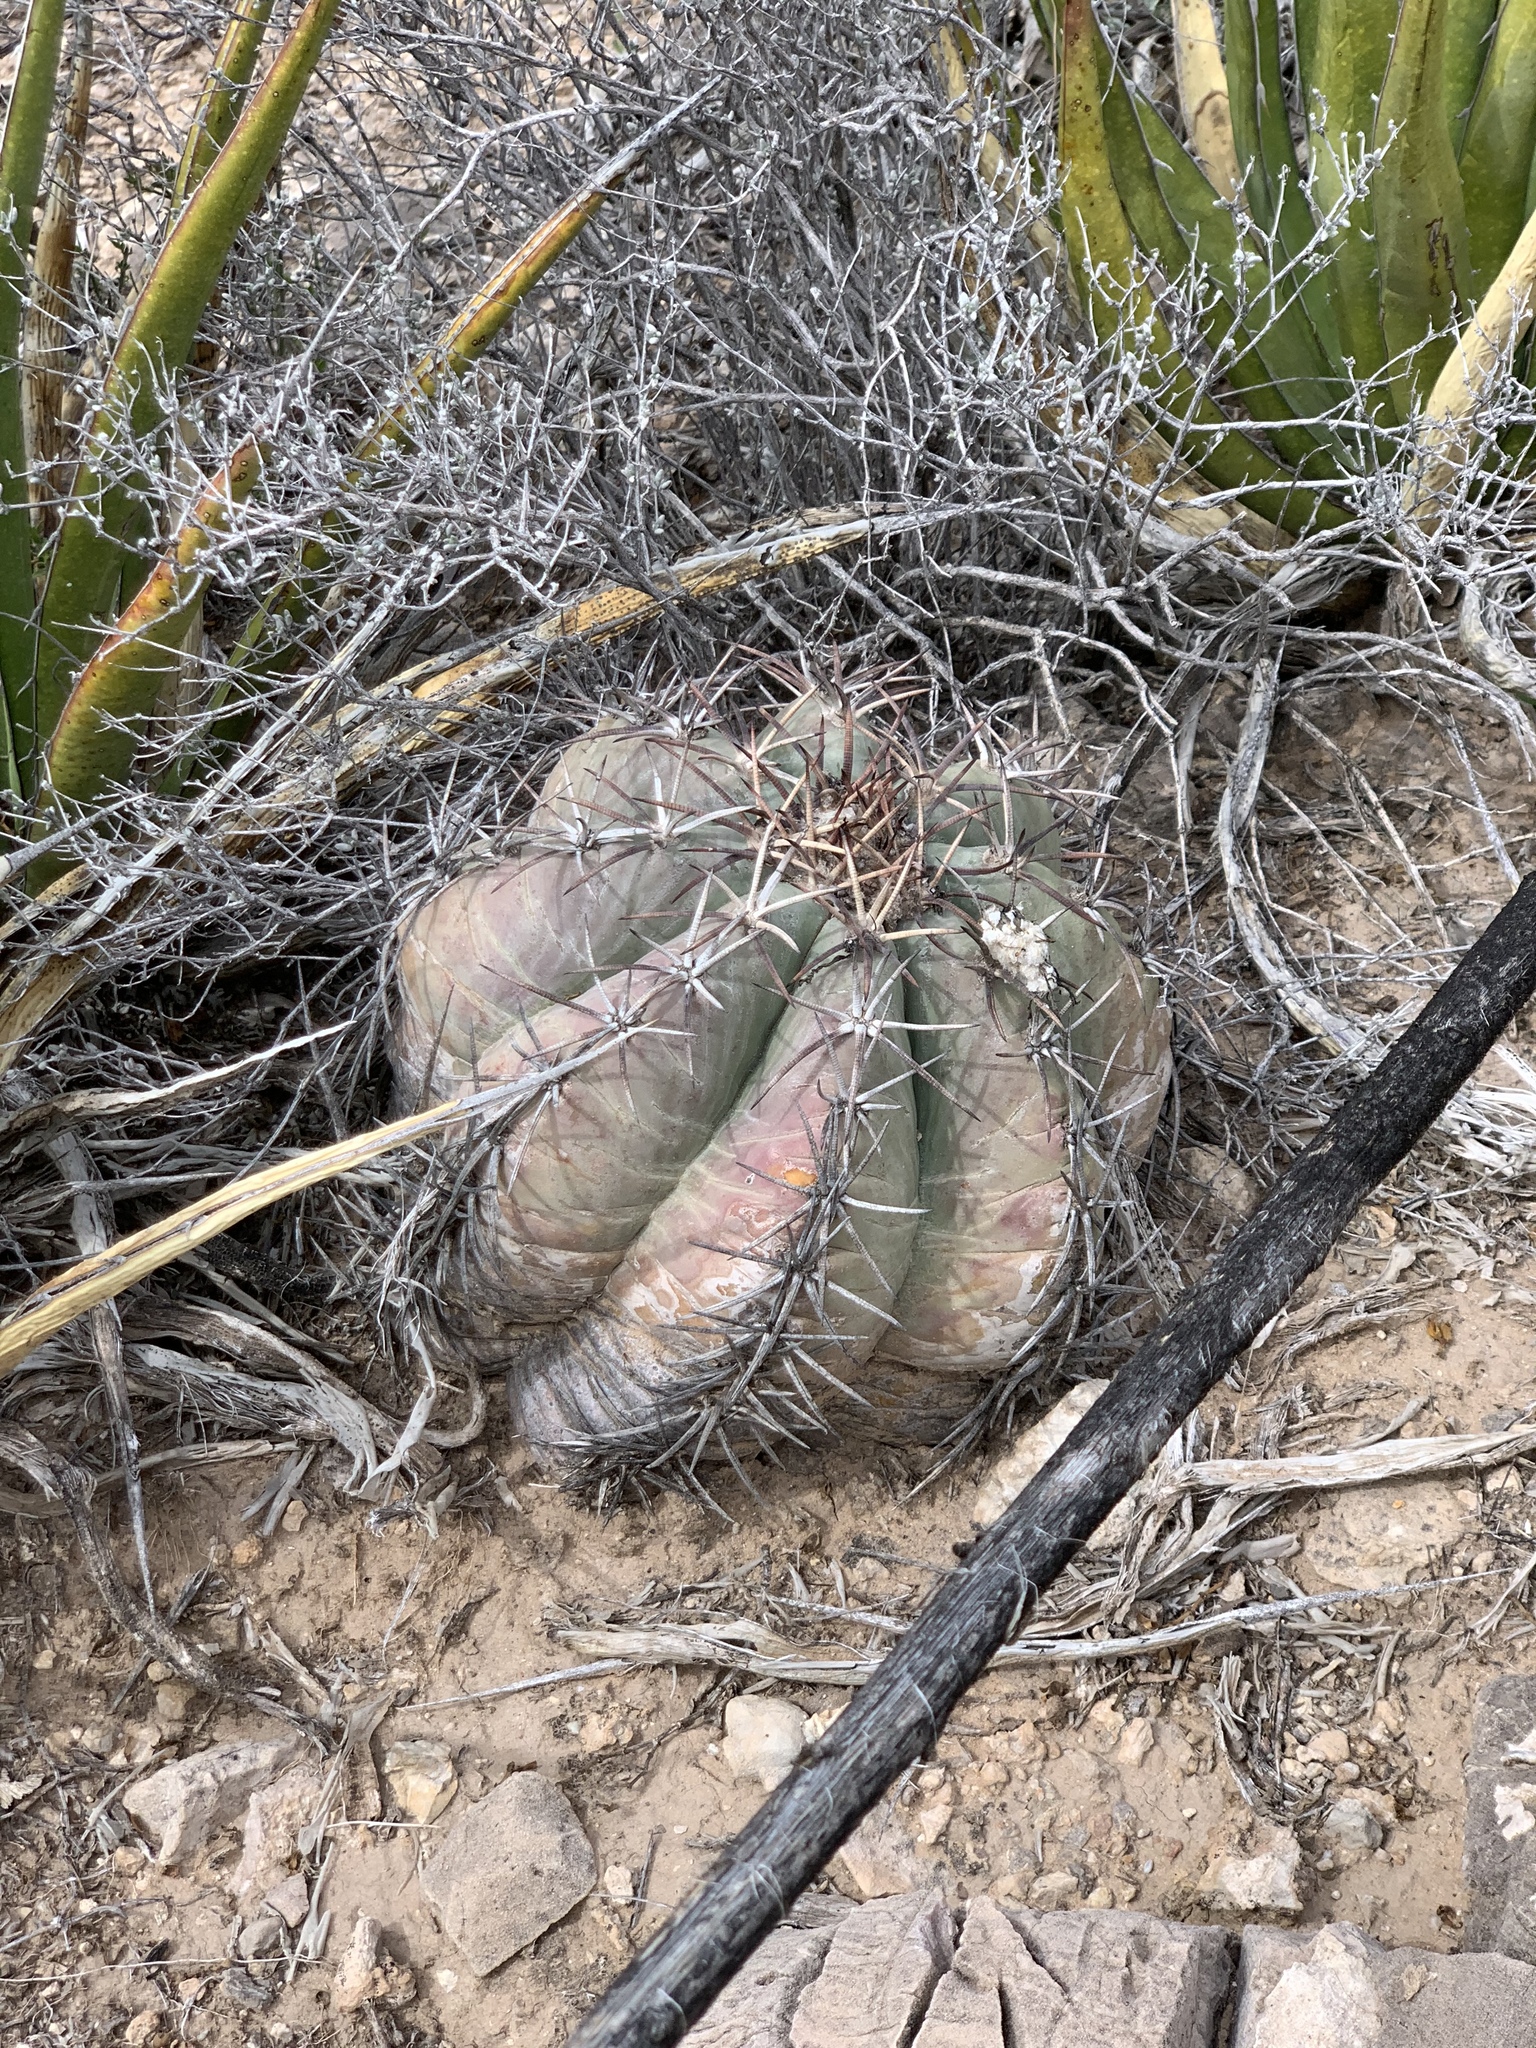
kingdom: Plantae
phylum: Tracheophyta
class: Magnoliopsida
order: Caryophyllales
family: Cactaceae
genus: Echinocactus
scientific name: Echinocactus horizonthalonius
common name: Devilshead
